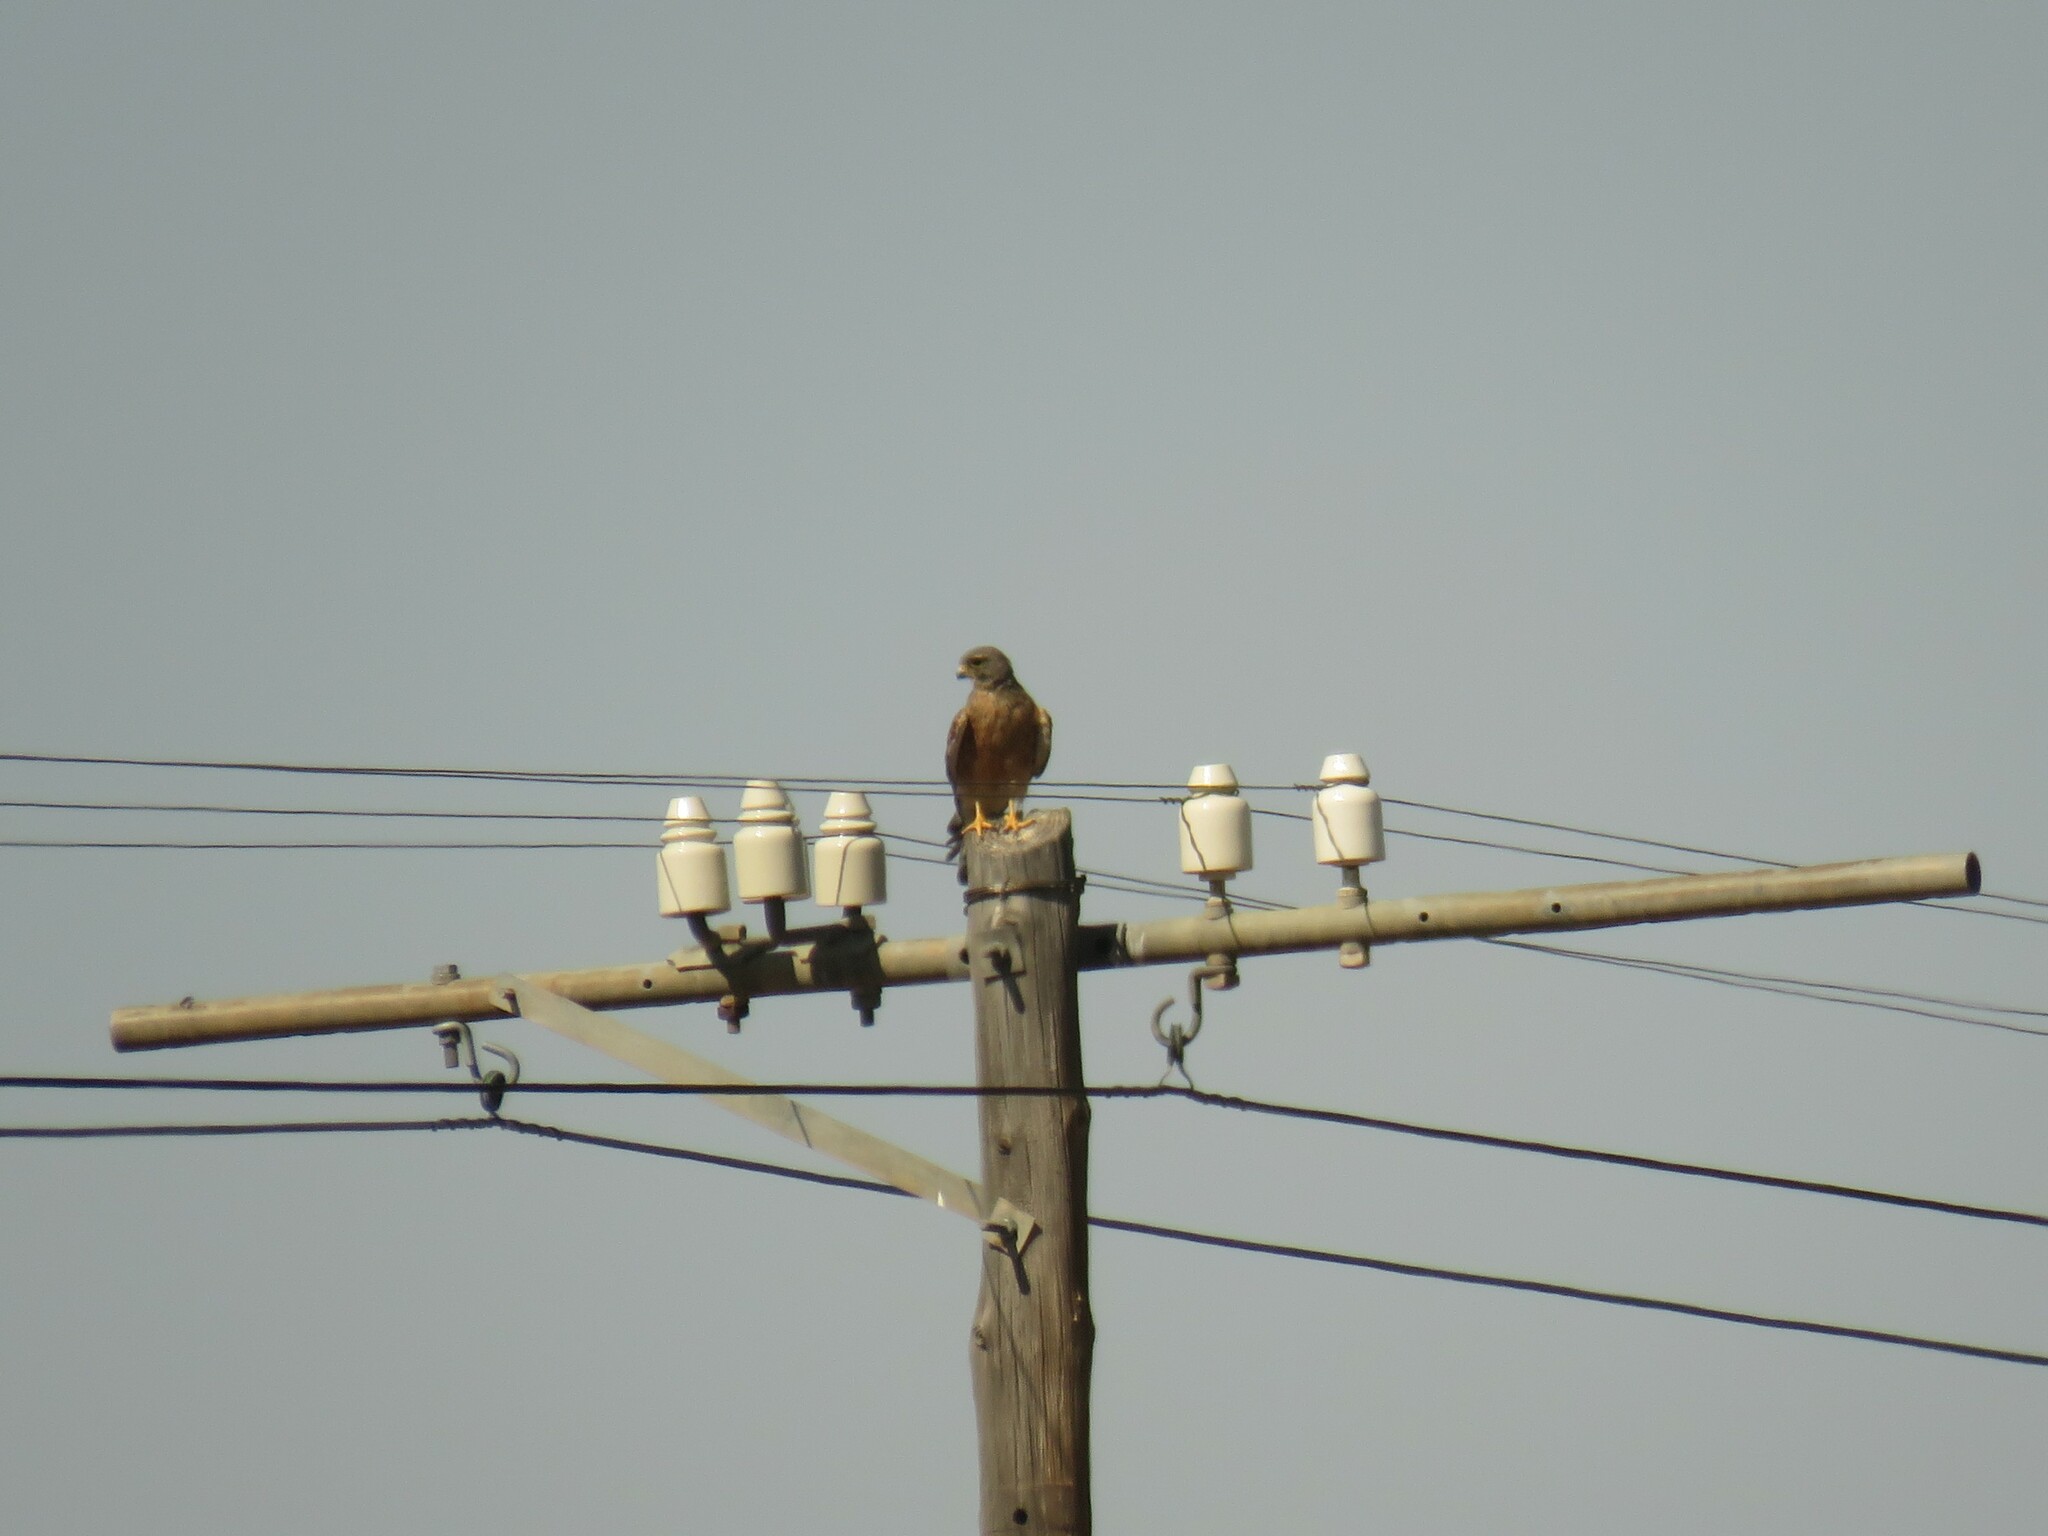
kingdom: Animalia
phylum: Chordata
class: Aves
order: Falconiformes
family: Falconidae
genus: Falco
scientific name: Falco rupicolus
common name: Rock kestrel
